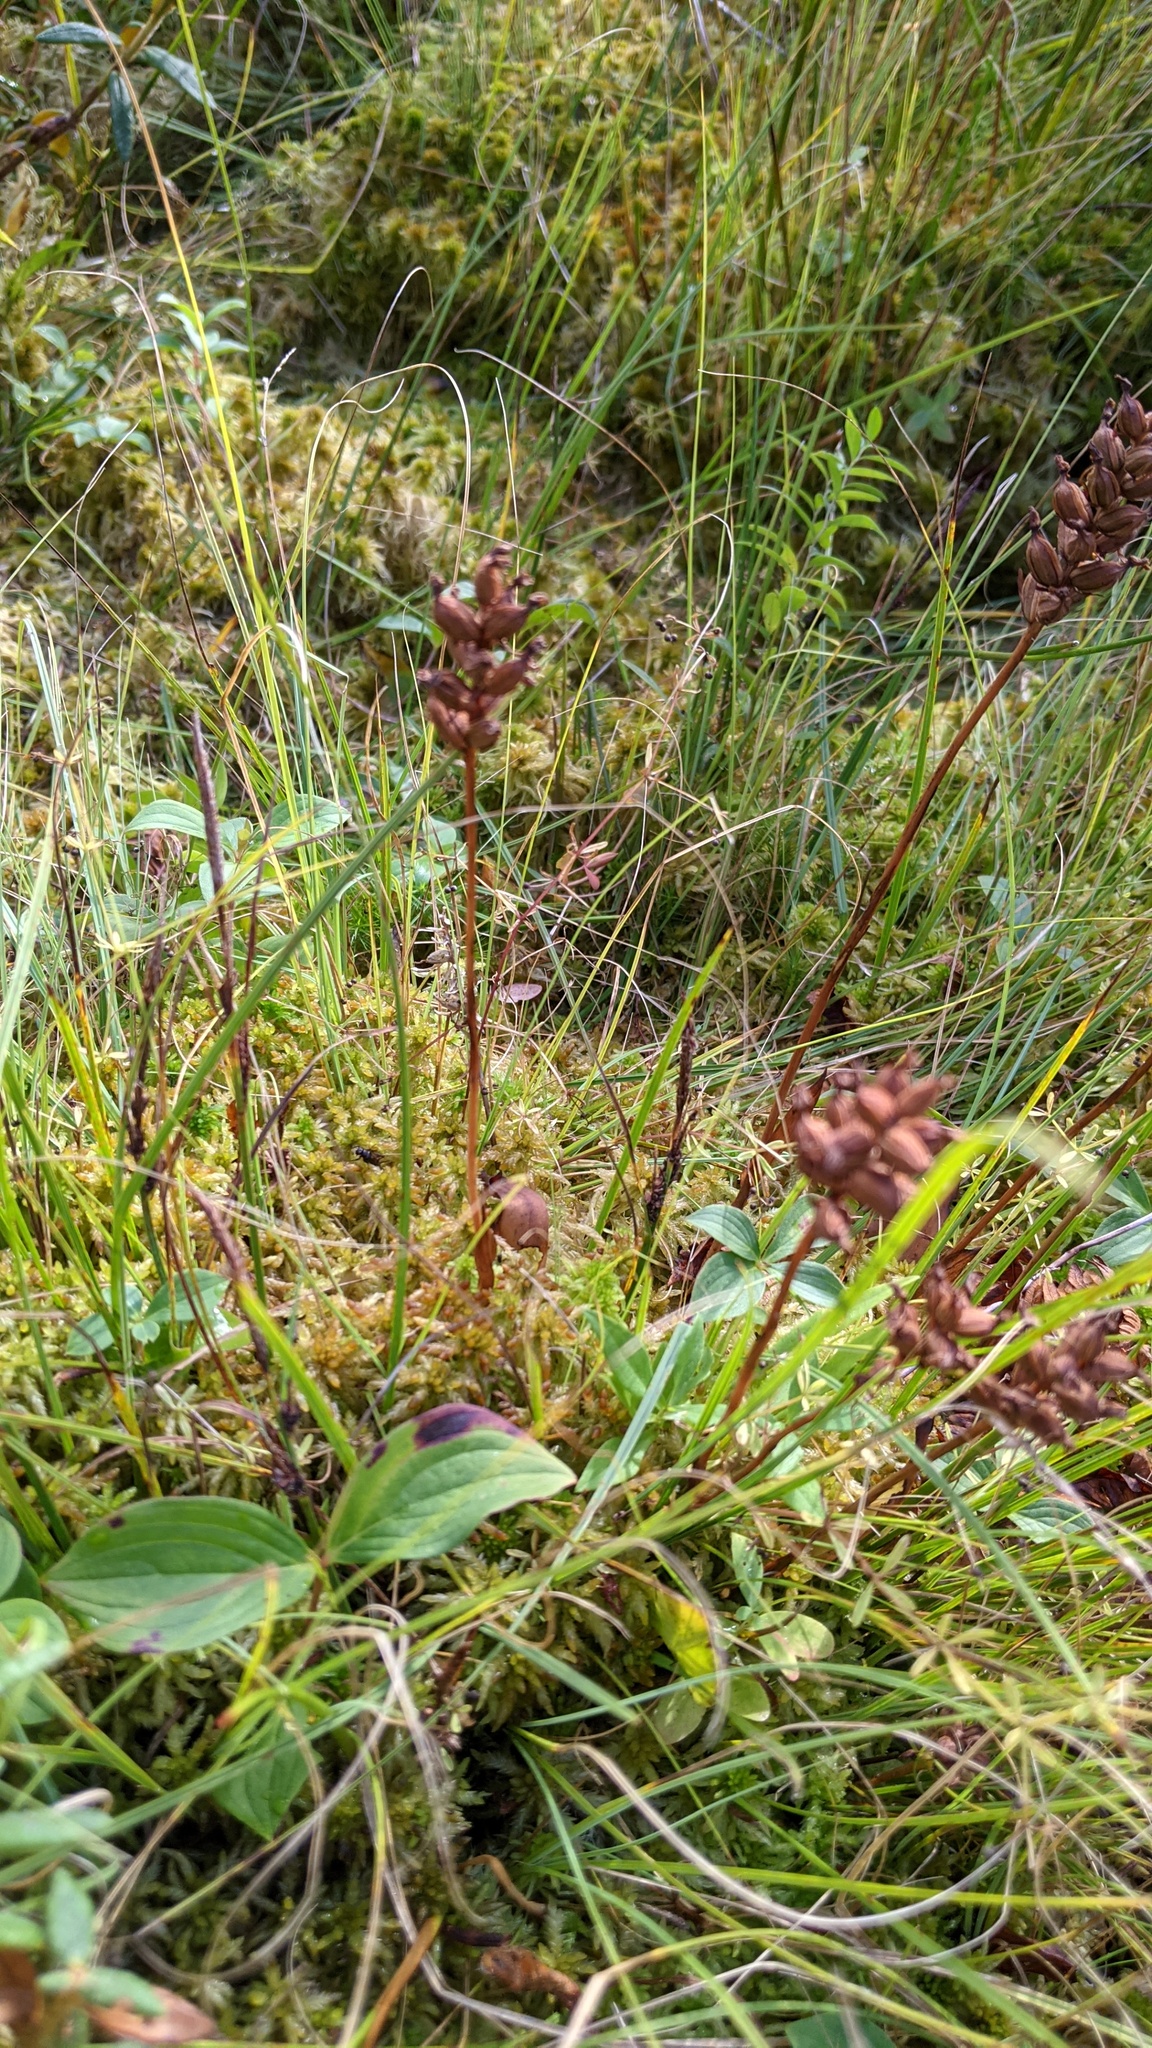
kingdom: Plantae
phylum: Tracheophyta
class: Liliopsida
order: Asparagales
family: Orchidaceae
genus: Platanthera
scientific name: Platanthera clavellata
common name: Club-spur orchid
